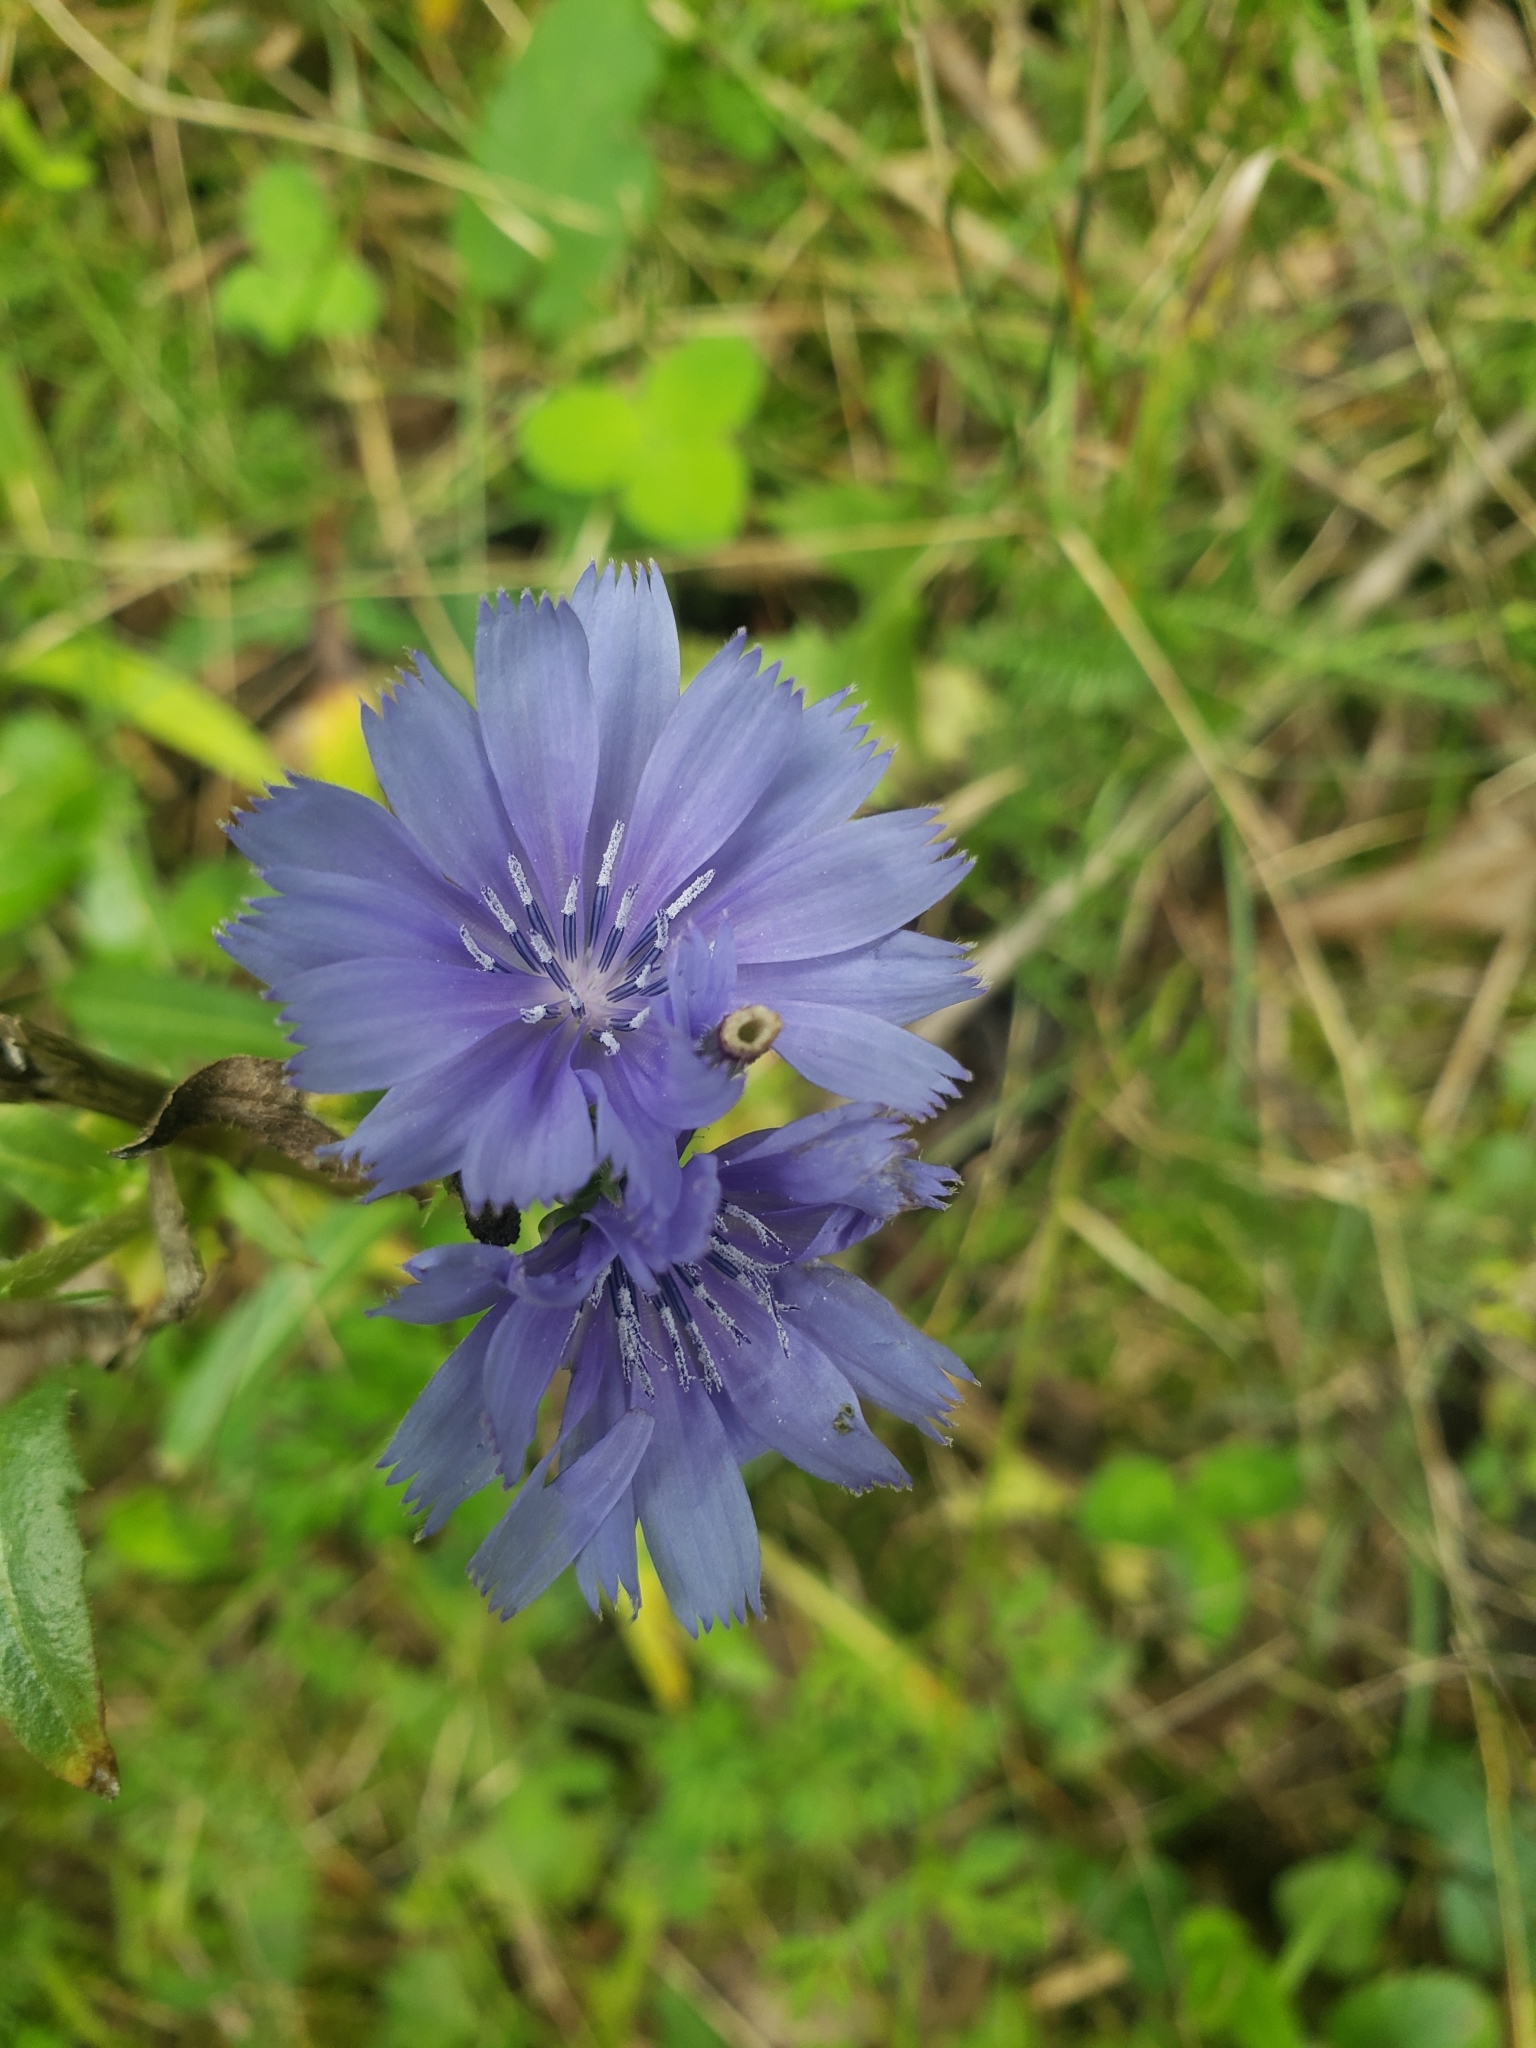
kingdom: Plantae
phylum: Tracheophyta
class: Magnoliopsida
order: Asterales
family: Asteraceae
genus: Cichorium
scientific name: Cichorium intybus
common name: Chicory
